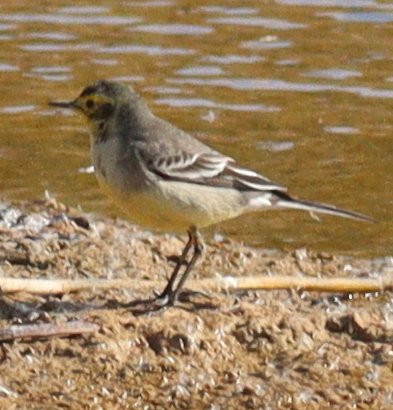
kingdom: Animalia
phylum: Chordata
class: Aves
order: Passeriformes
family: Motacillidae
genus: Motacilla
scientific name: Motacilla citreola
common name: Citrine wagtail
